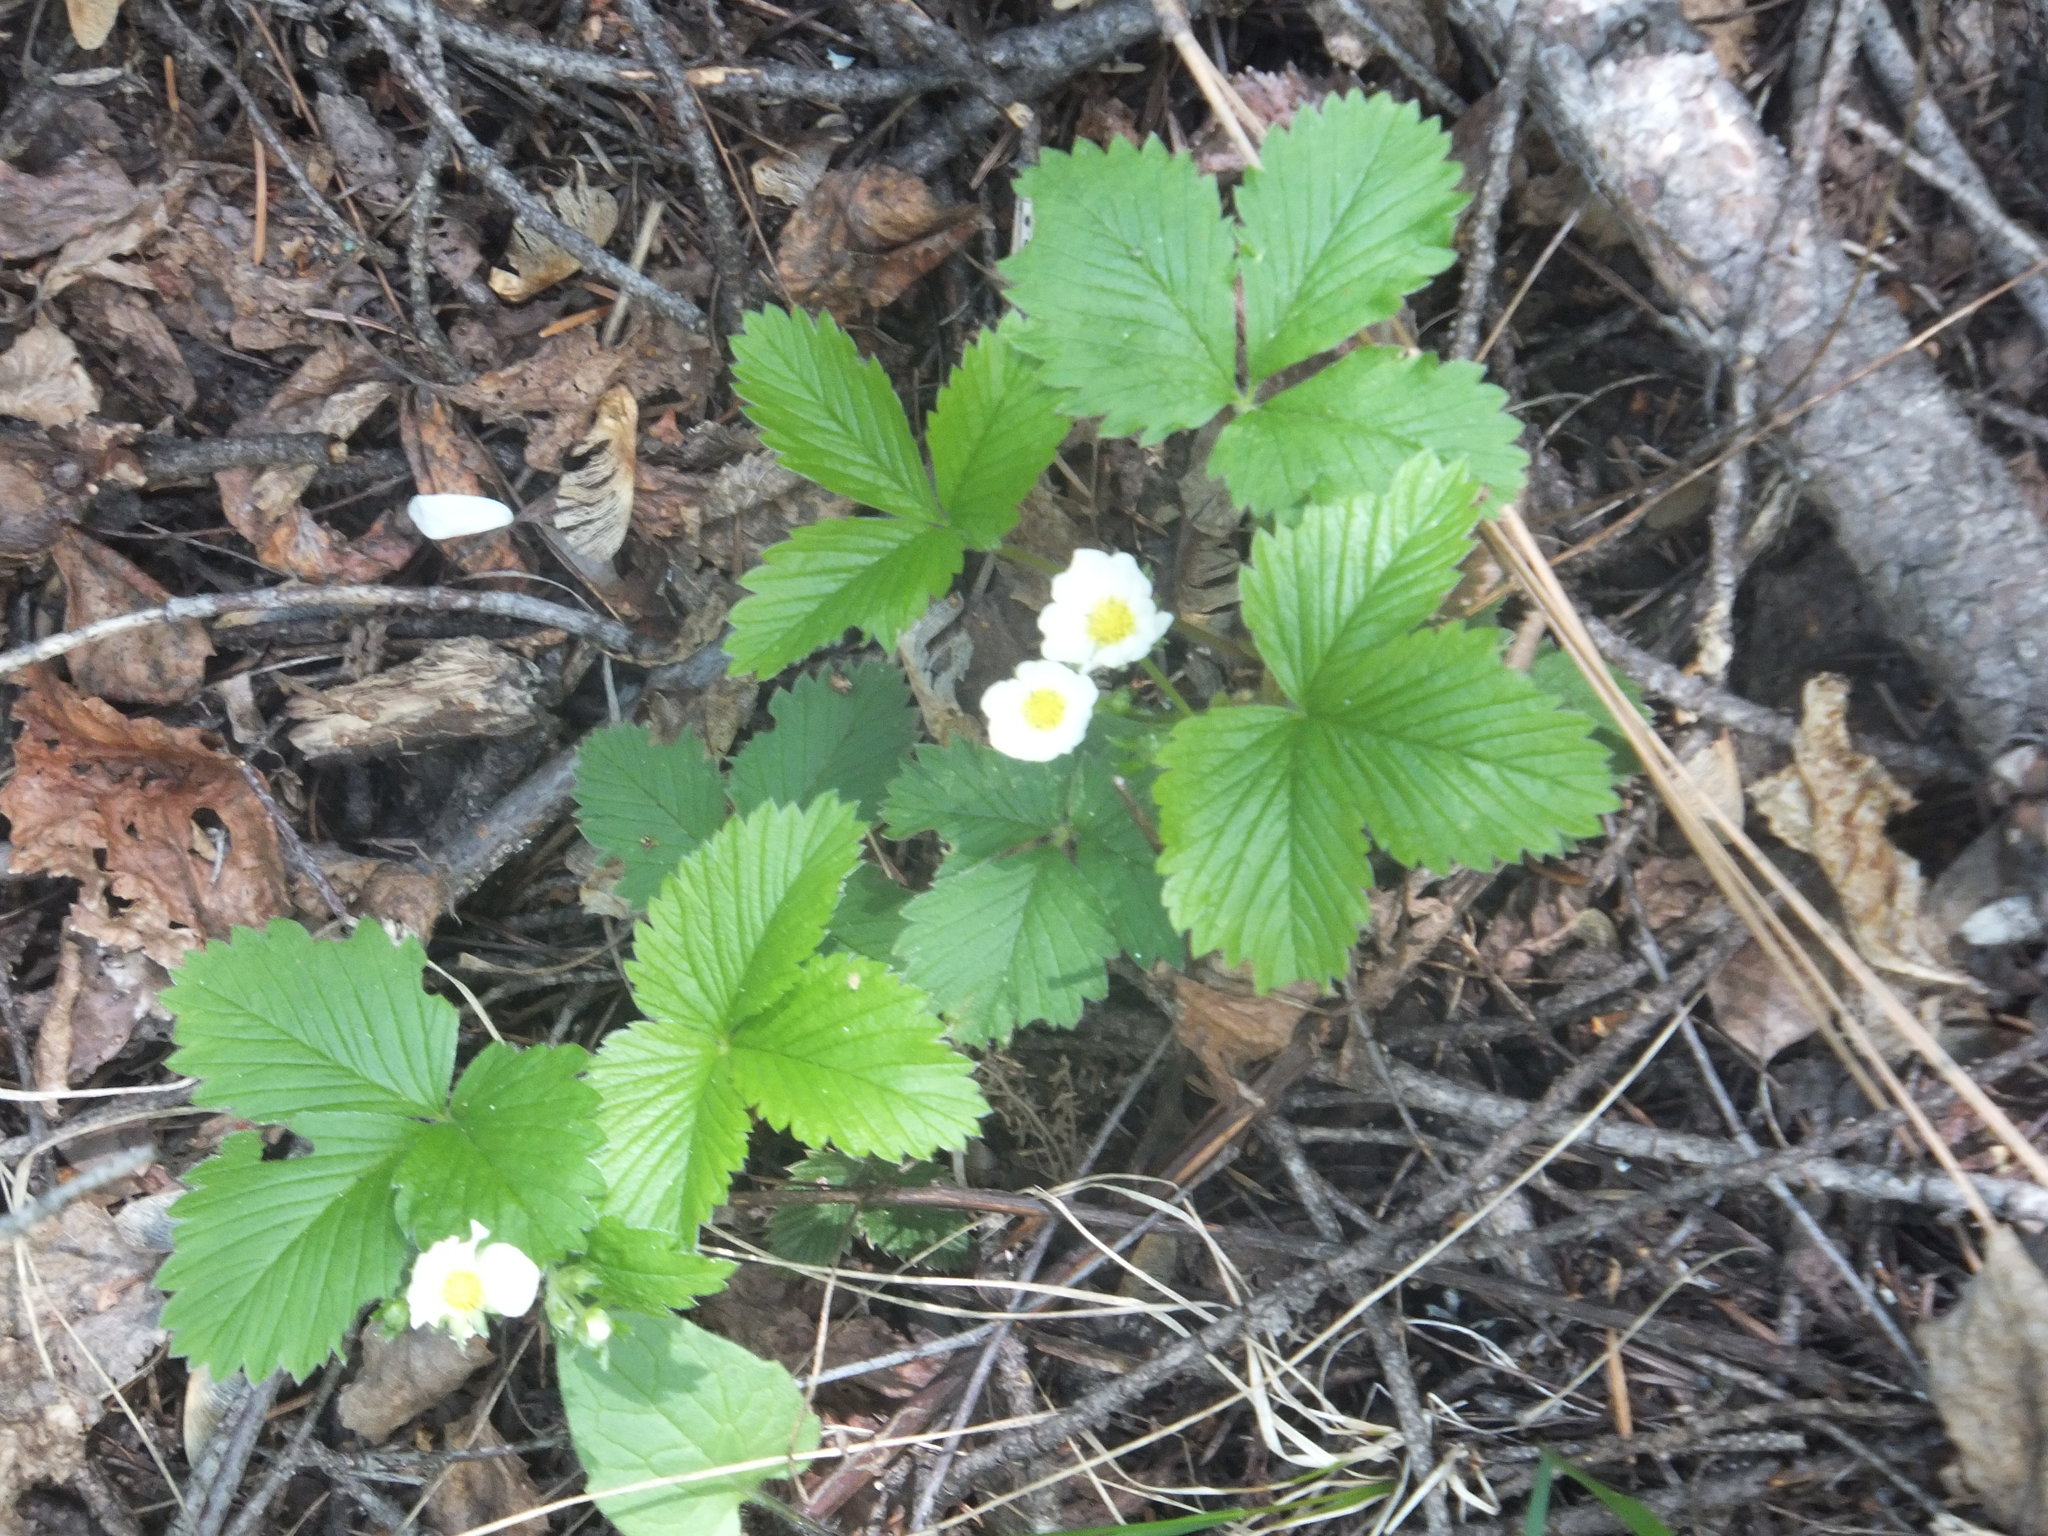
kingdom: Plantae
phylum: Tracheophyta
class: Magnoliopsida
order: Rosales
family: Rosaceae
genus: Fragaria
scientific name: Fragaria vesca
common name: Wild strawberry
